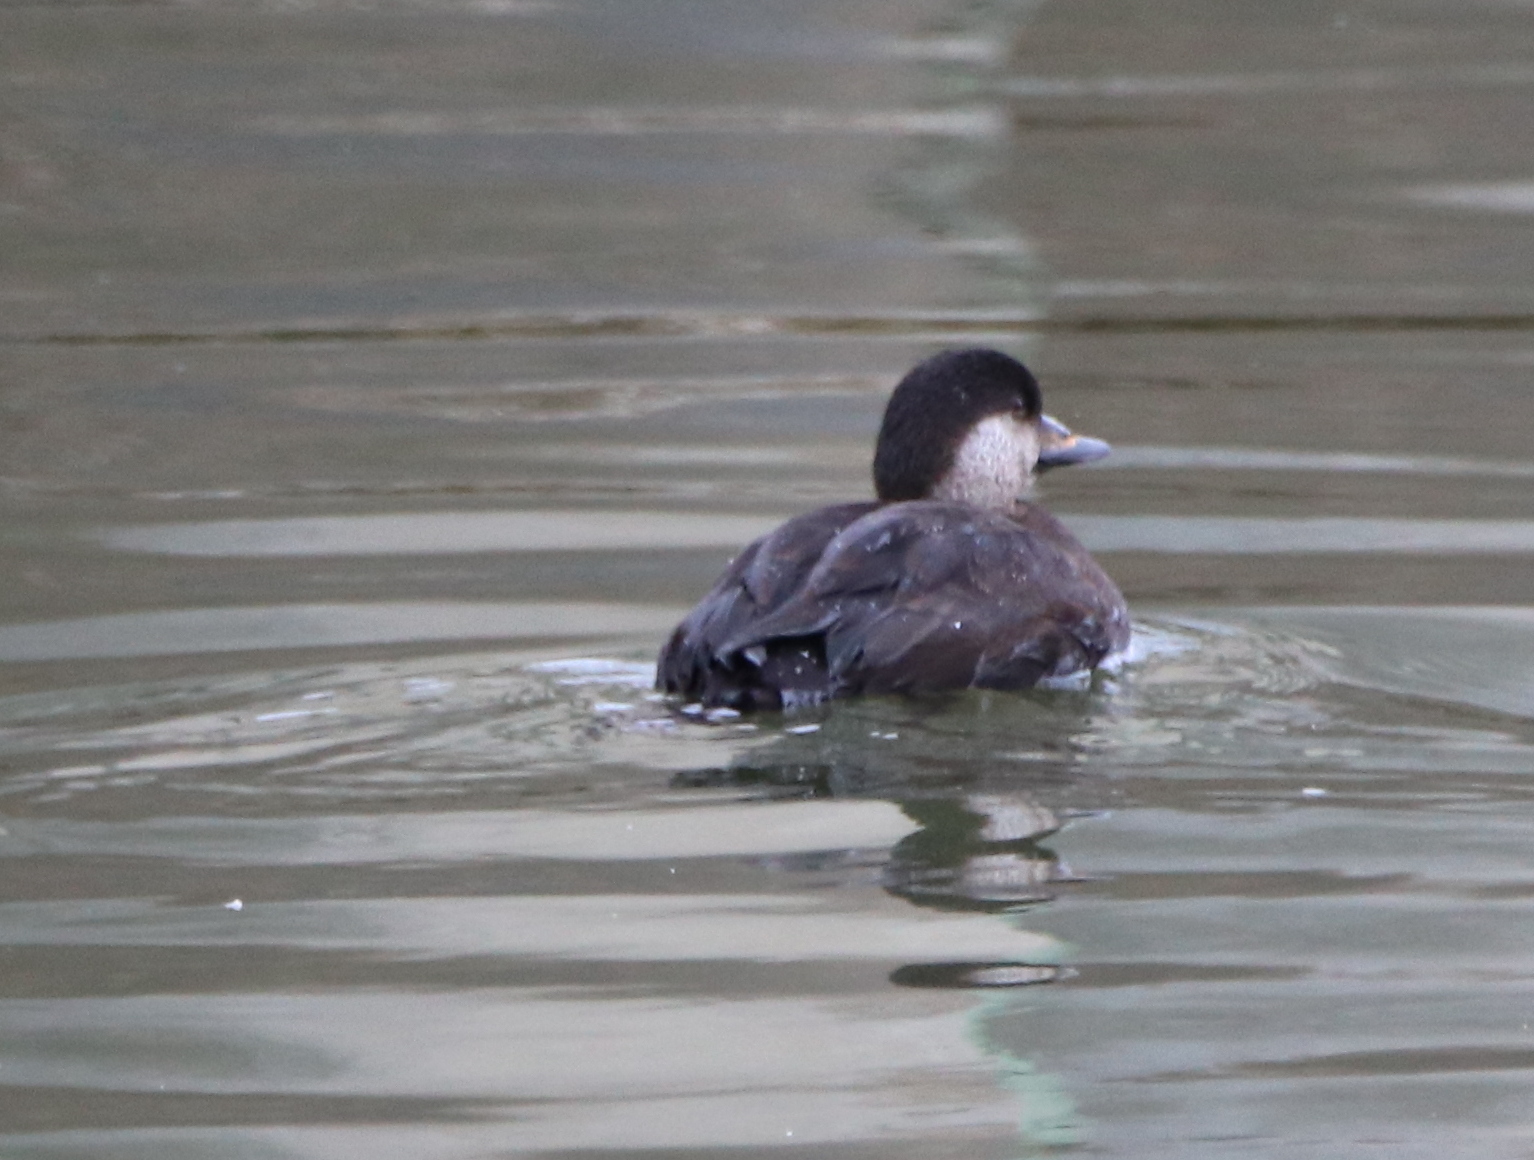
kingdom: Animalia
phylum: Chordata
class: Aves
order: Anseriformes
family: Anatidae
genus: Melanitta
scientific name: Melanitta americana
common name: Black scoter
